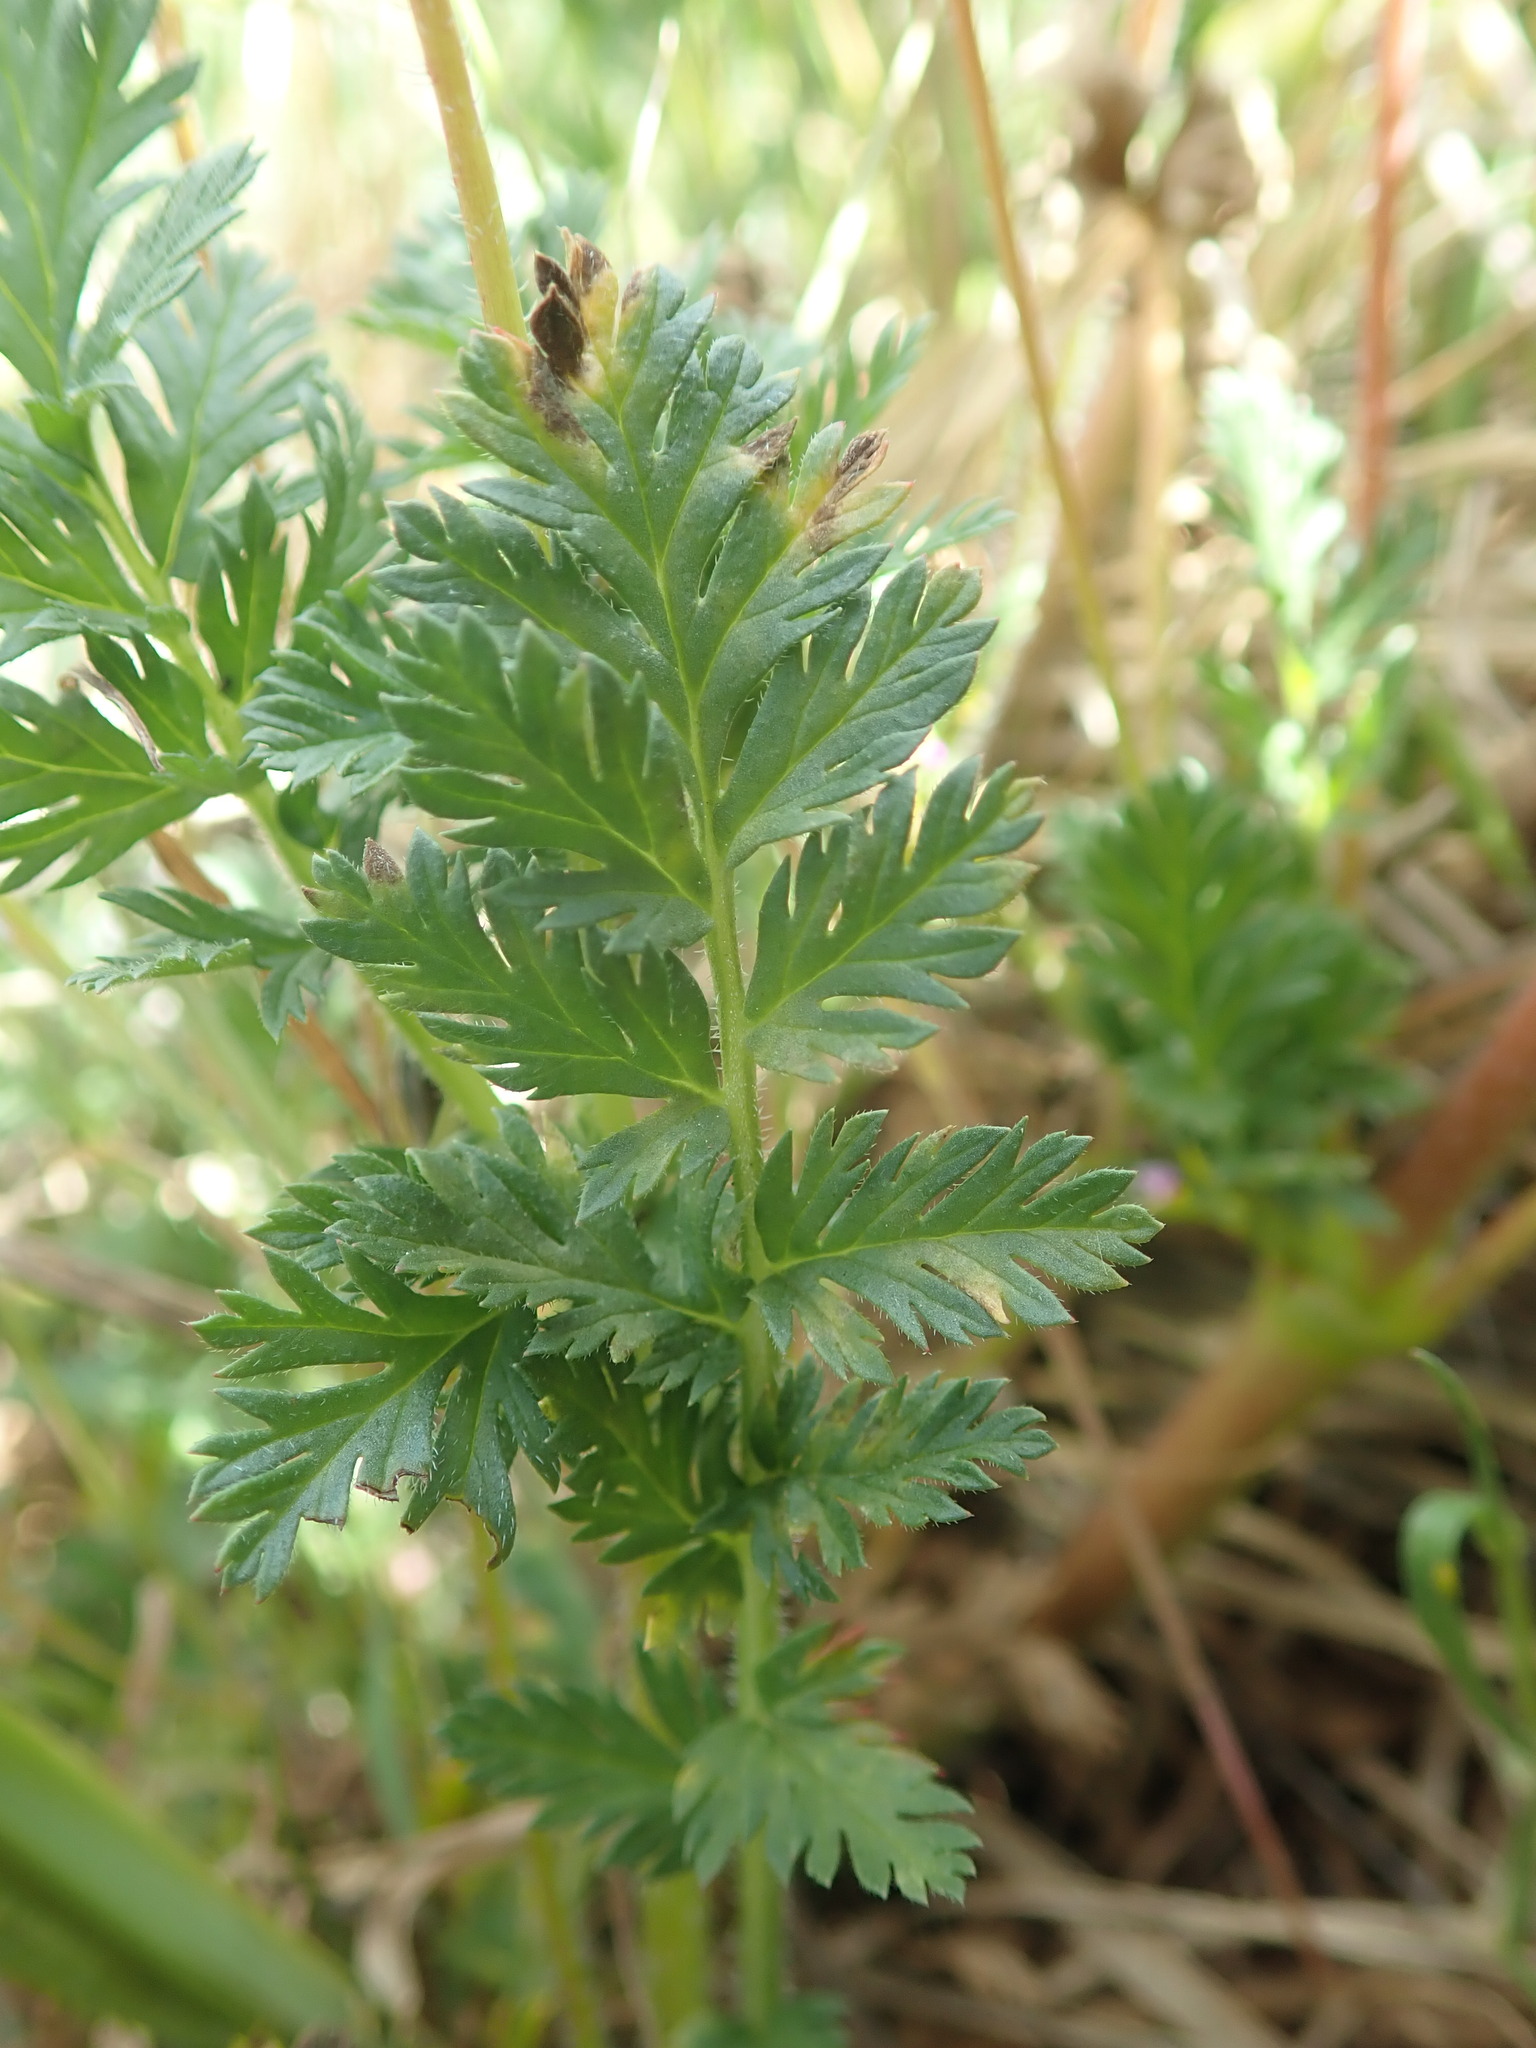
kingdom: Plantae
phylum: Tracheophyta
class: Magnoliopsida
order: Geraniales
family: Geraniaceae
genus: Erodium
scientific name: Erodium cicutarium
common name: Common stork's-bill
